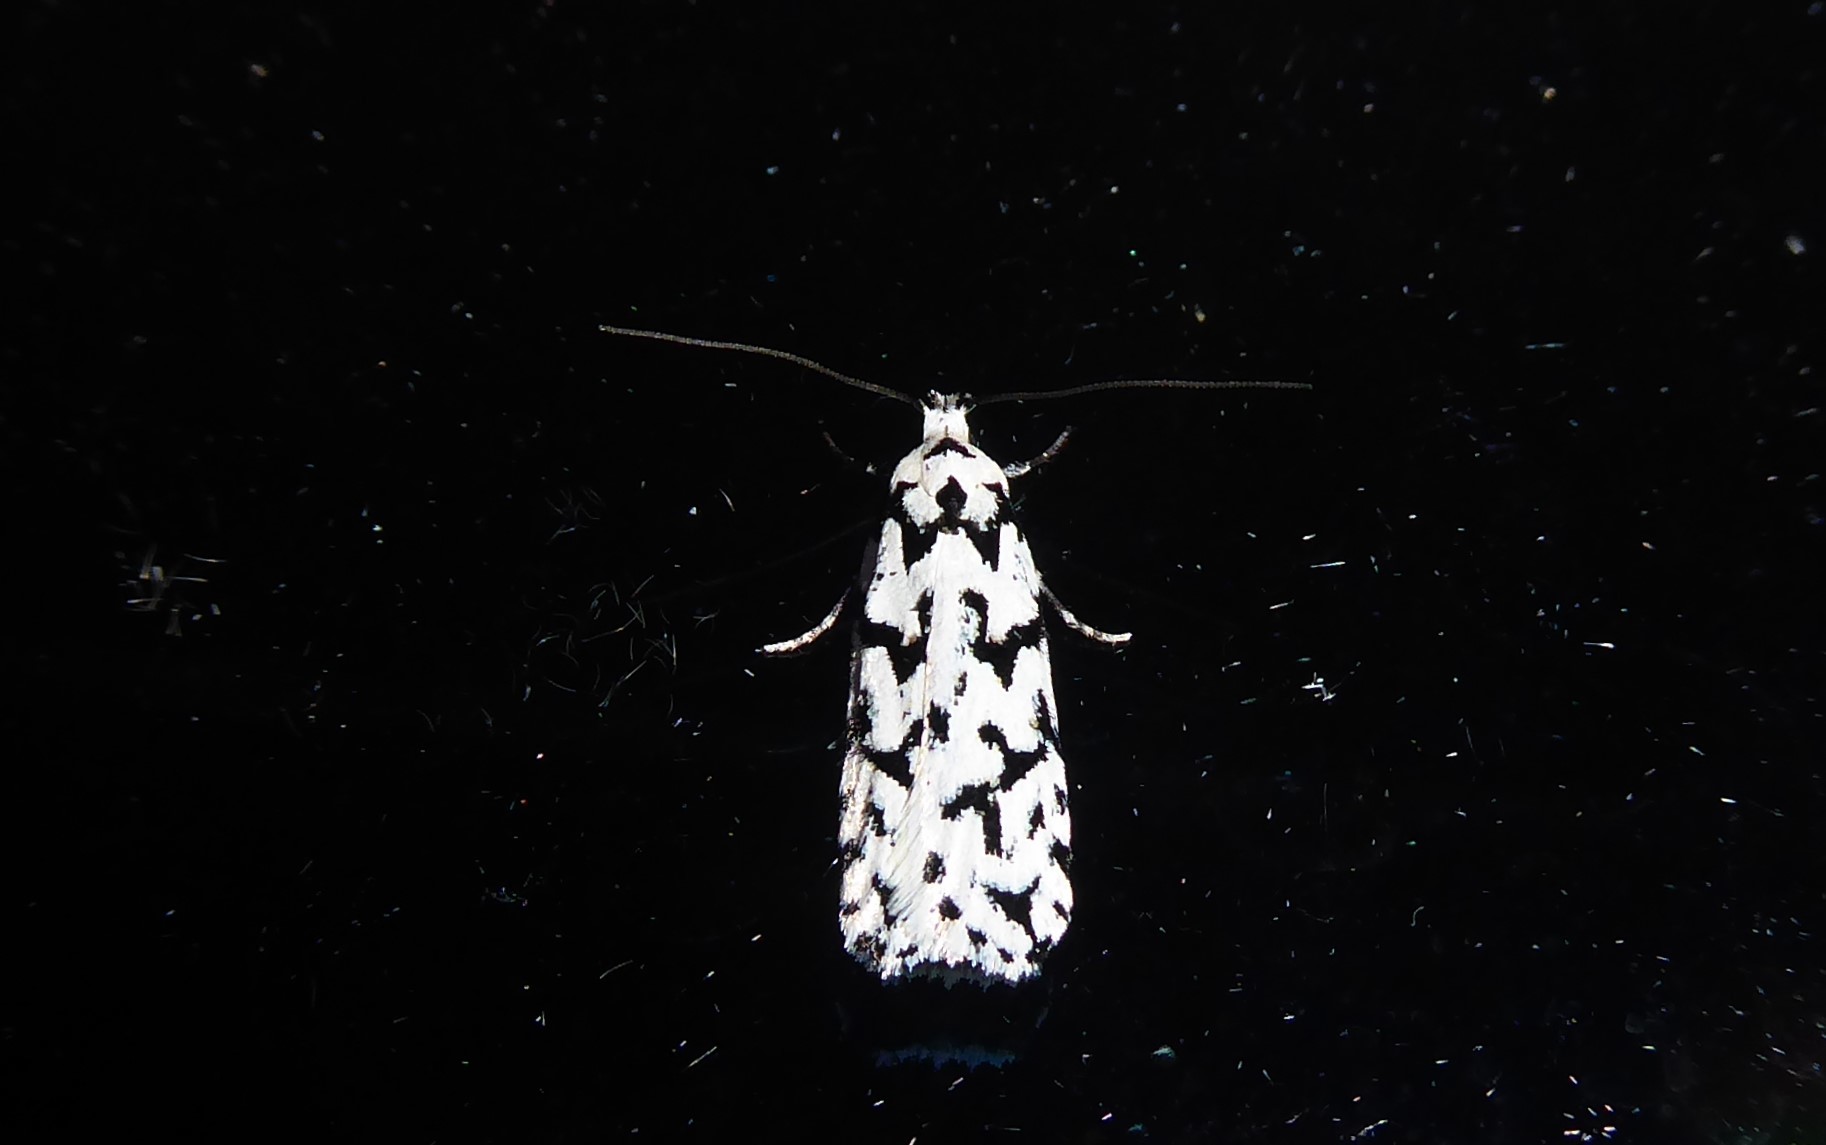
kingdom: Animalia
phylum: Arthropoda
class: Insecta
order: Lepidoptera
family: Oecophoridae
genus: Izatha
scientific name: Izatha katadiktya
